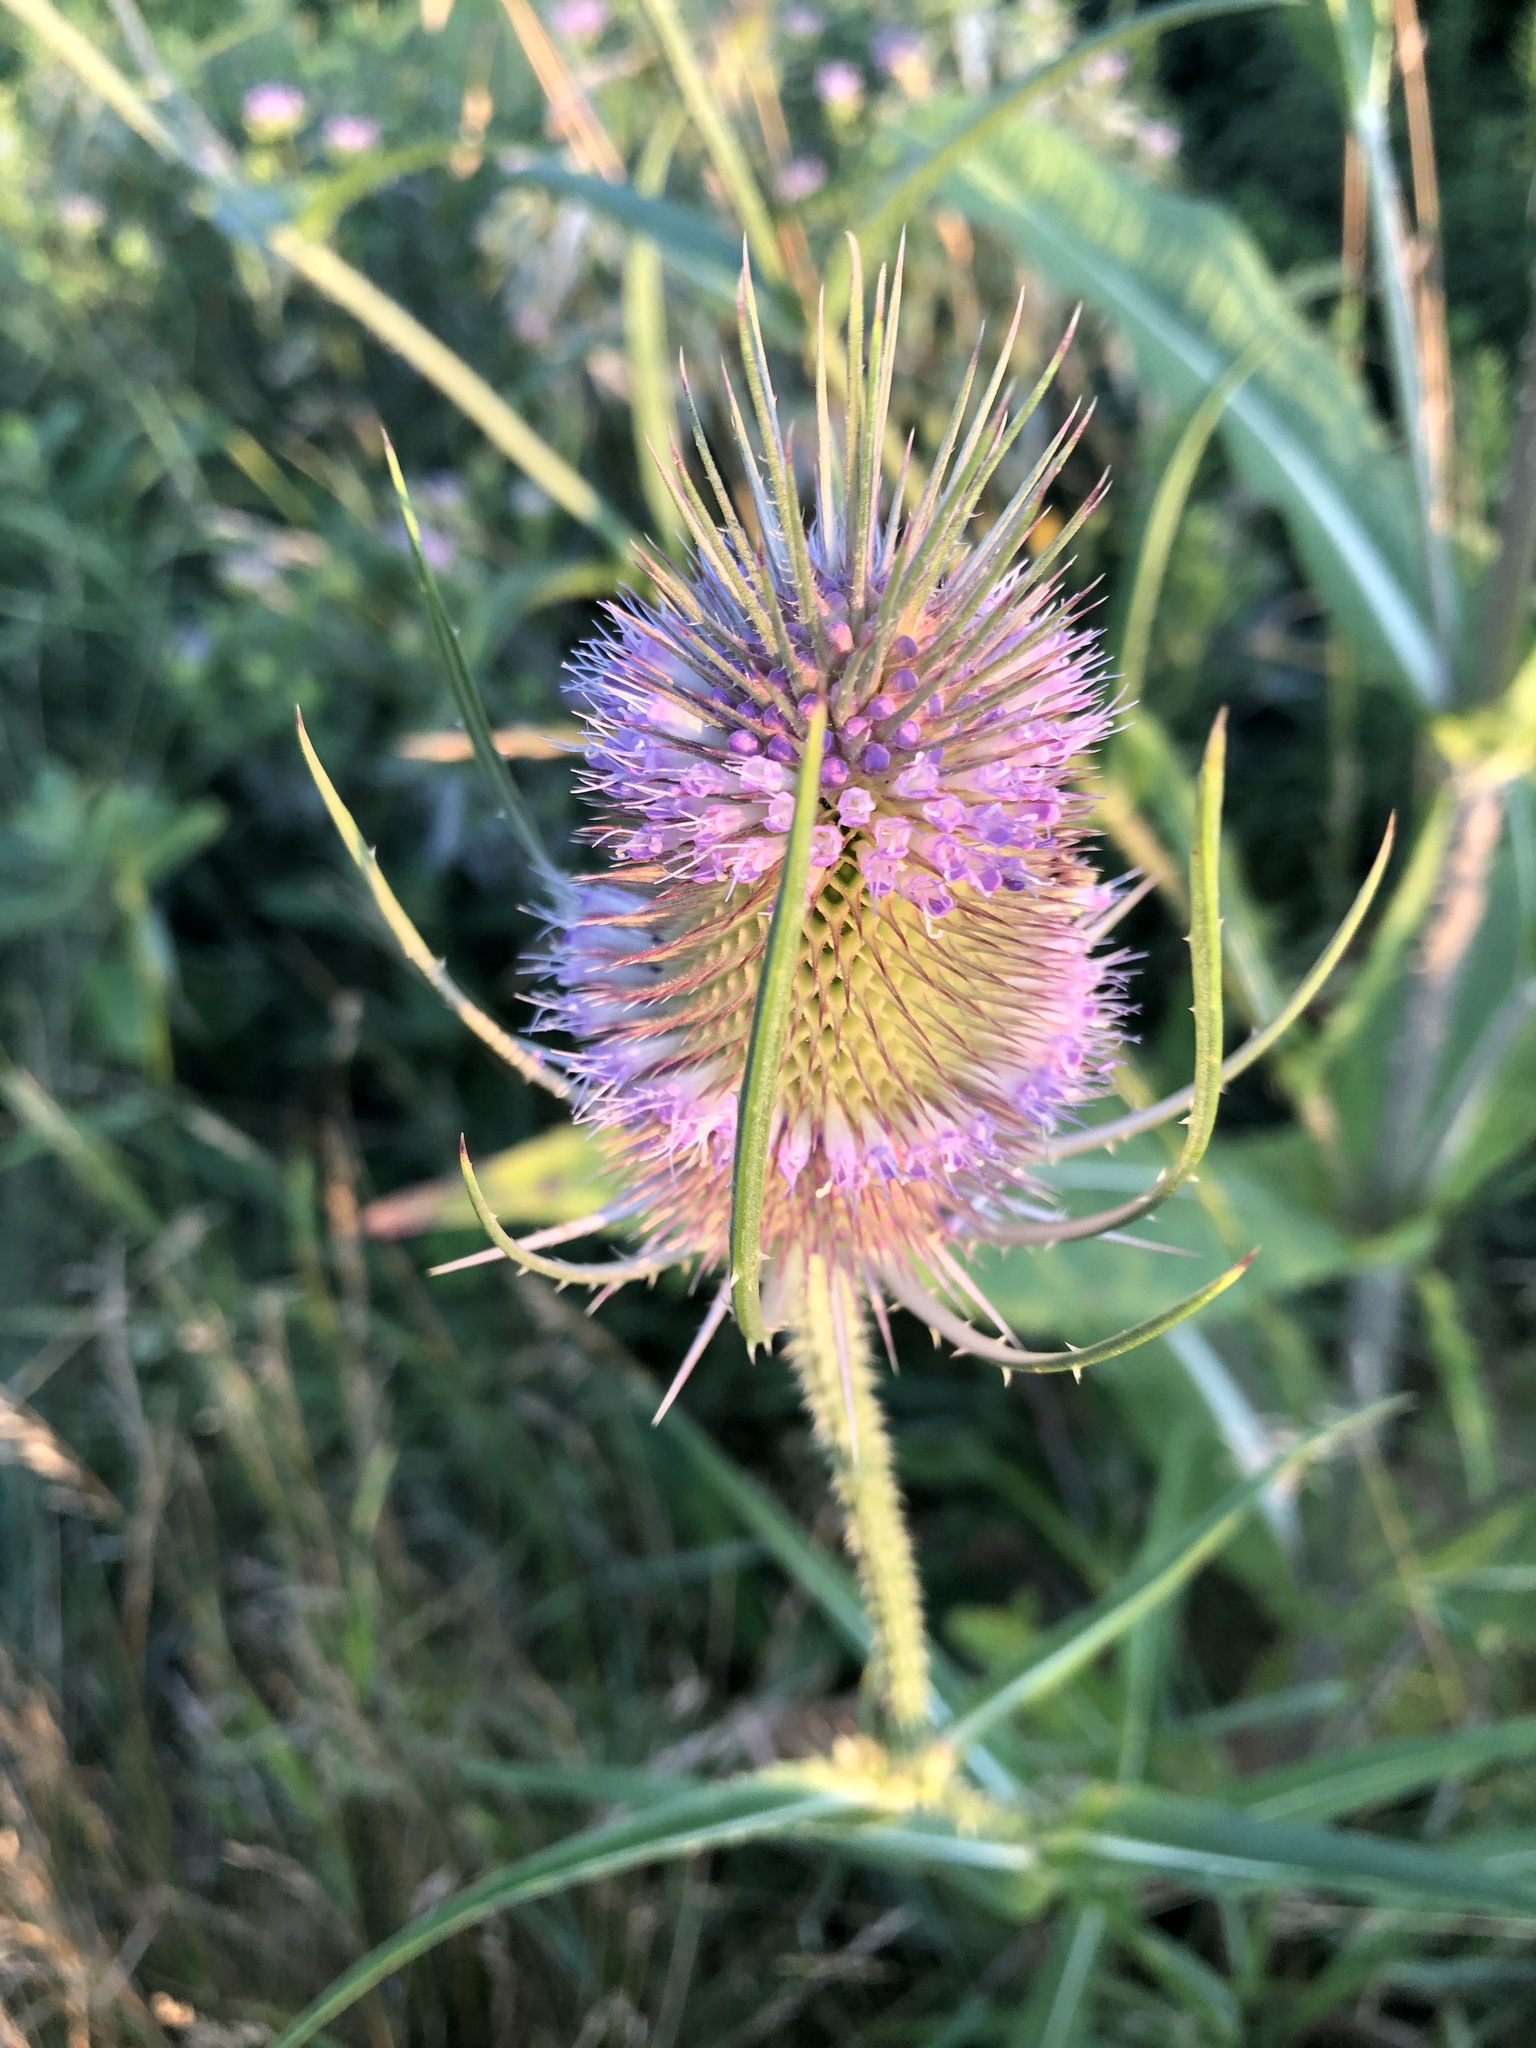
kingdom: Plantae
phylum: Tracheophyta
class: Magnoliopsida
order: Dipsacales
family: Caprifoliaceae
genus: Dipsacus
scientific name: Dipsacus fullonum
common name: Teasel
